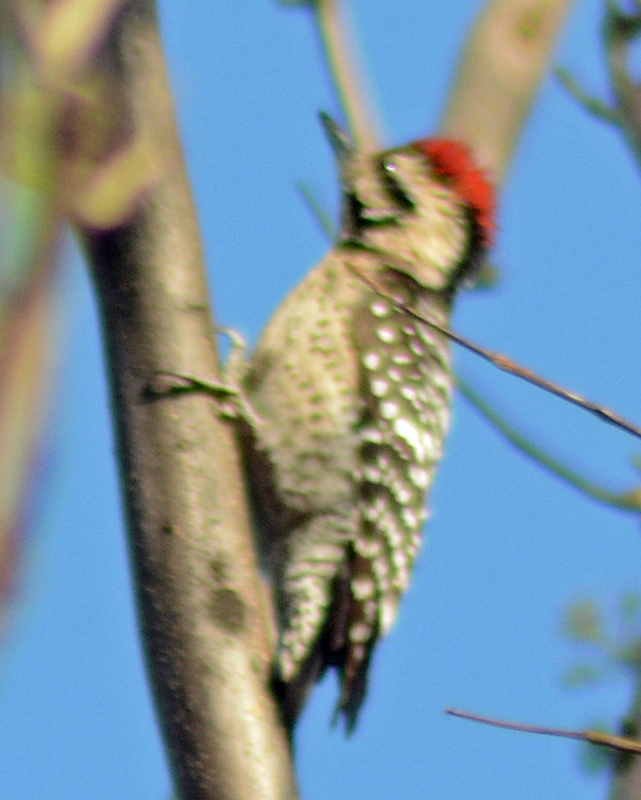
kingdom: Animalia
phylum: Chordata
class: Aves
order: Piciformes
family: Picidae
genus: Dryobates
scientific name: Dryobates scalaris
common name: Ladder-backed woodpecker
